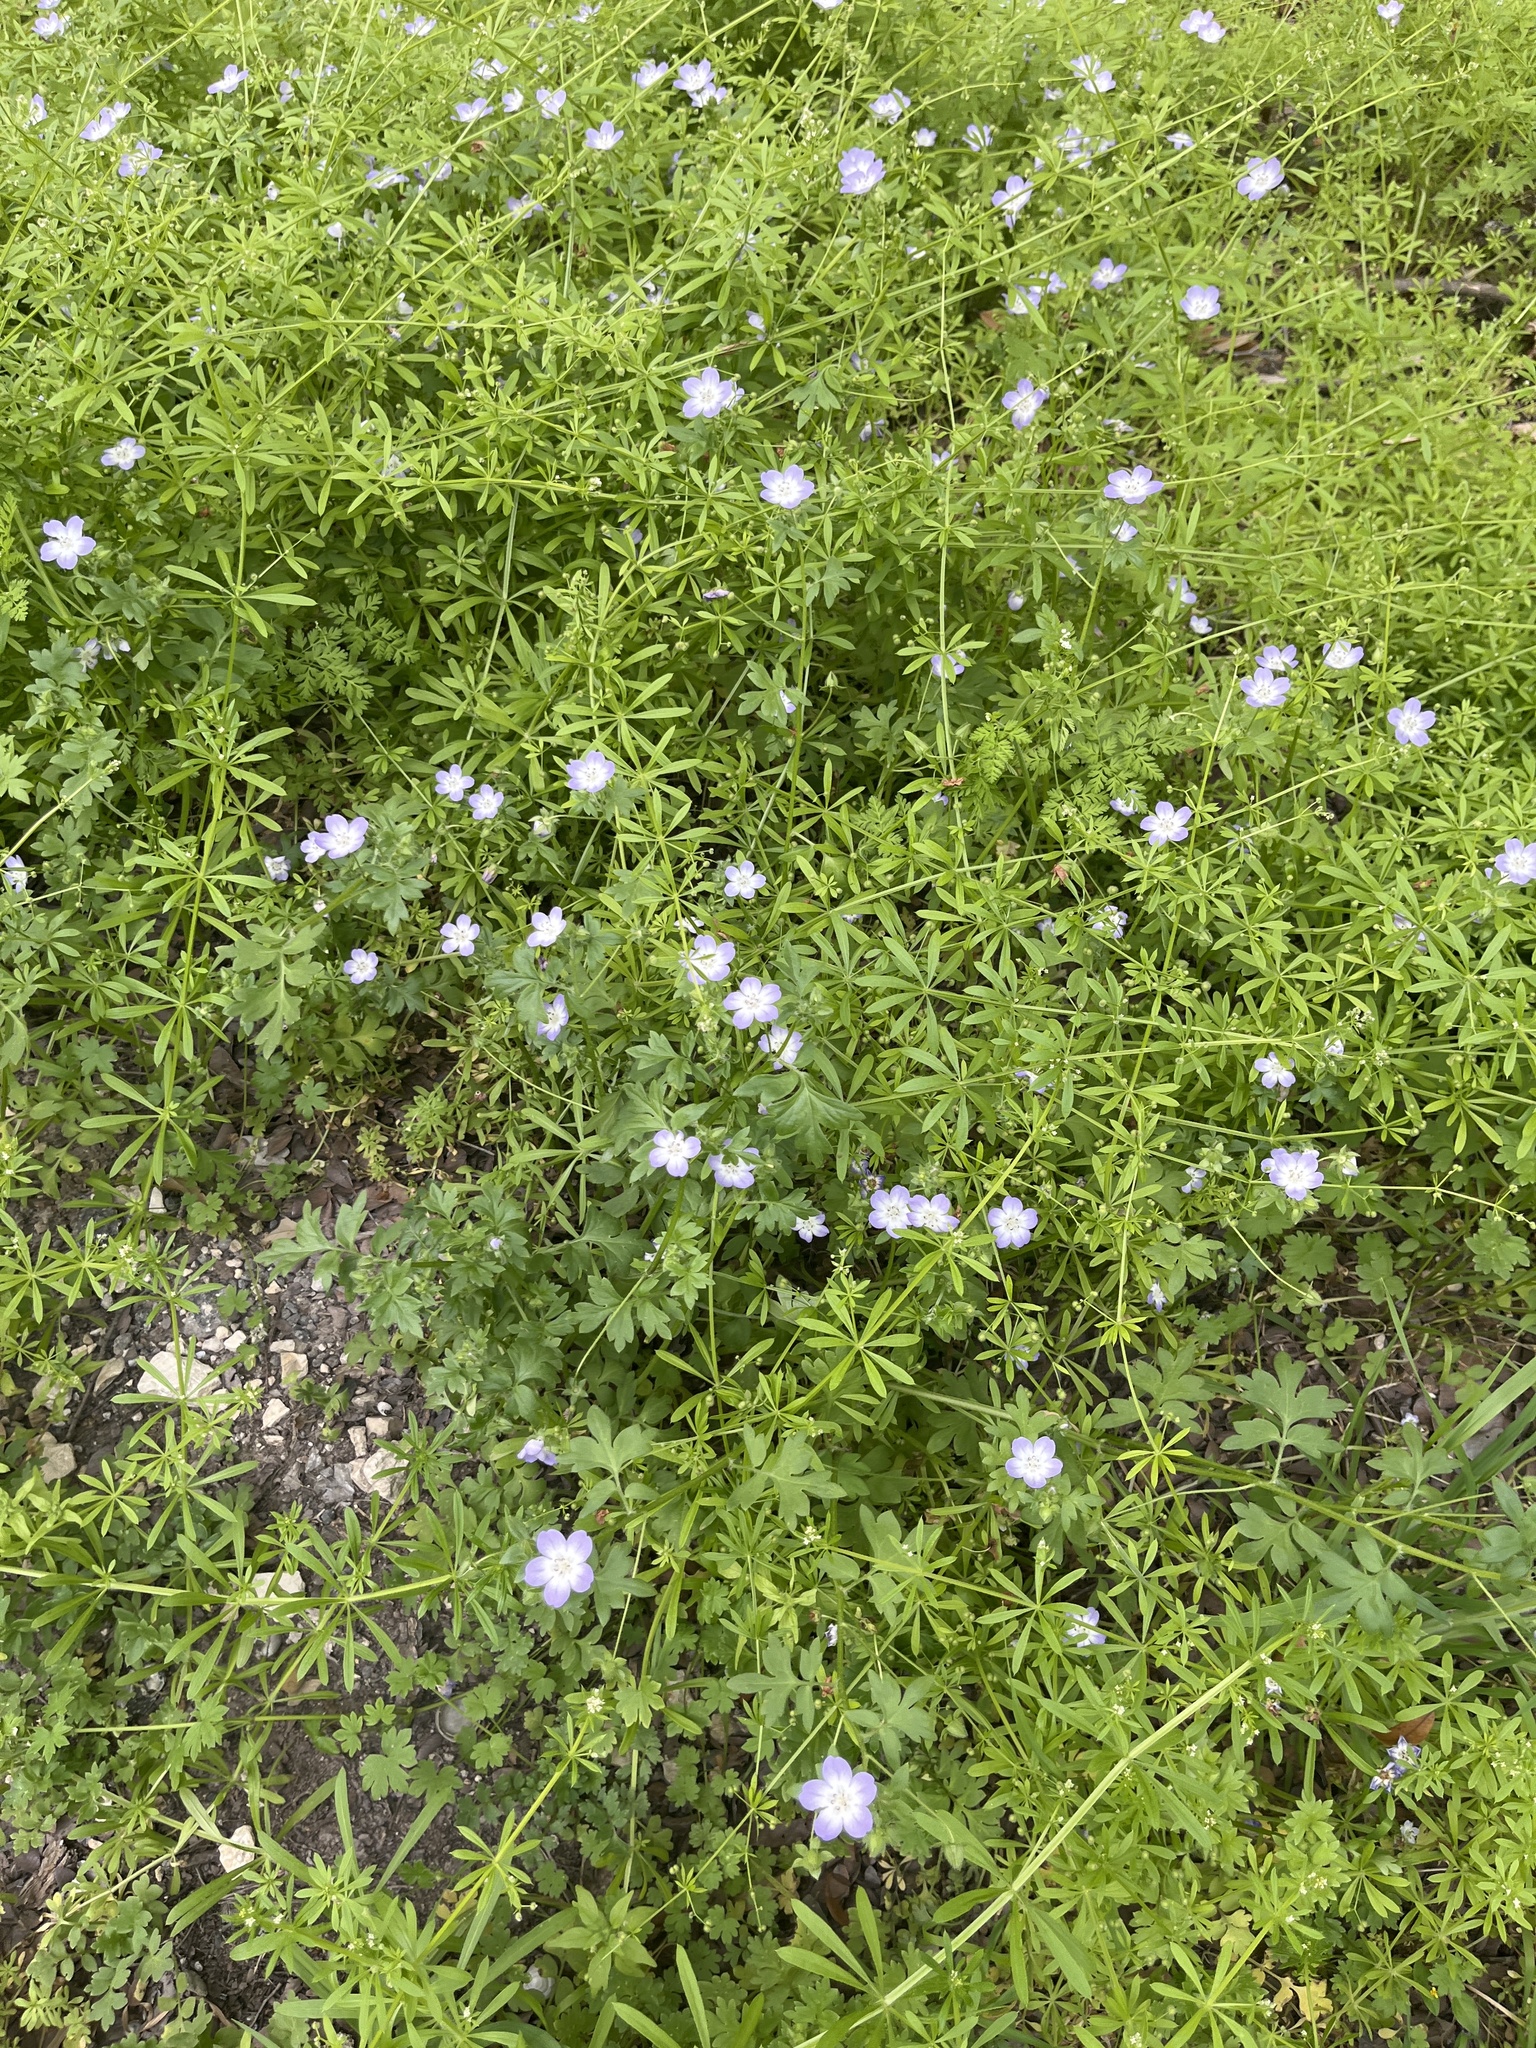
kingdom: Plantae
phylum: Tracheophyta
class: Magnoliopsida
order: Boraginales
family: Hydrophyllaceae
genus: Nemophila
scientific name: Nemophila phacelioides
